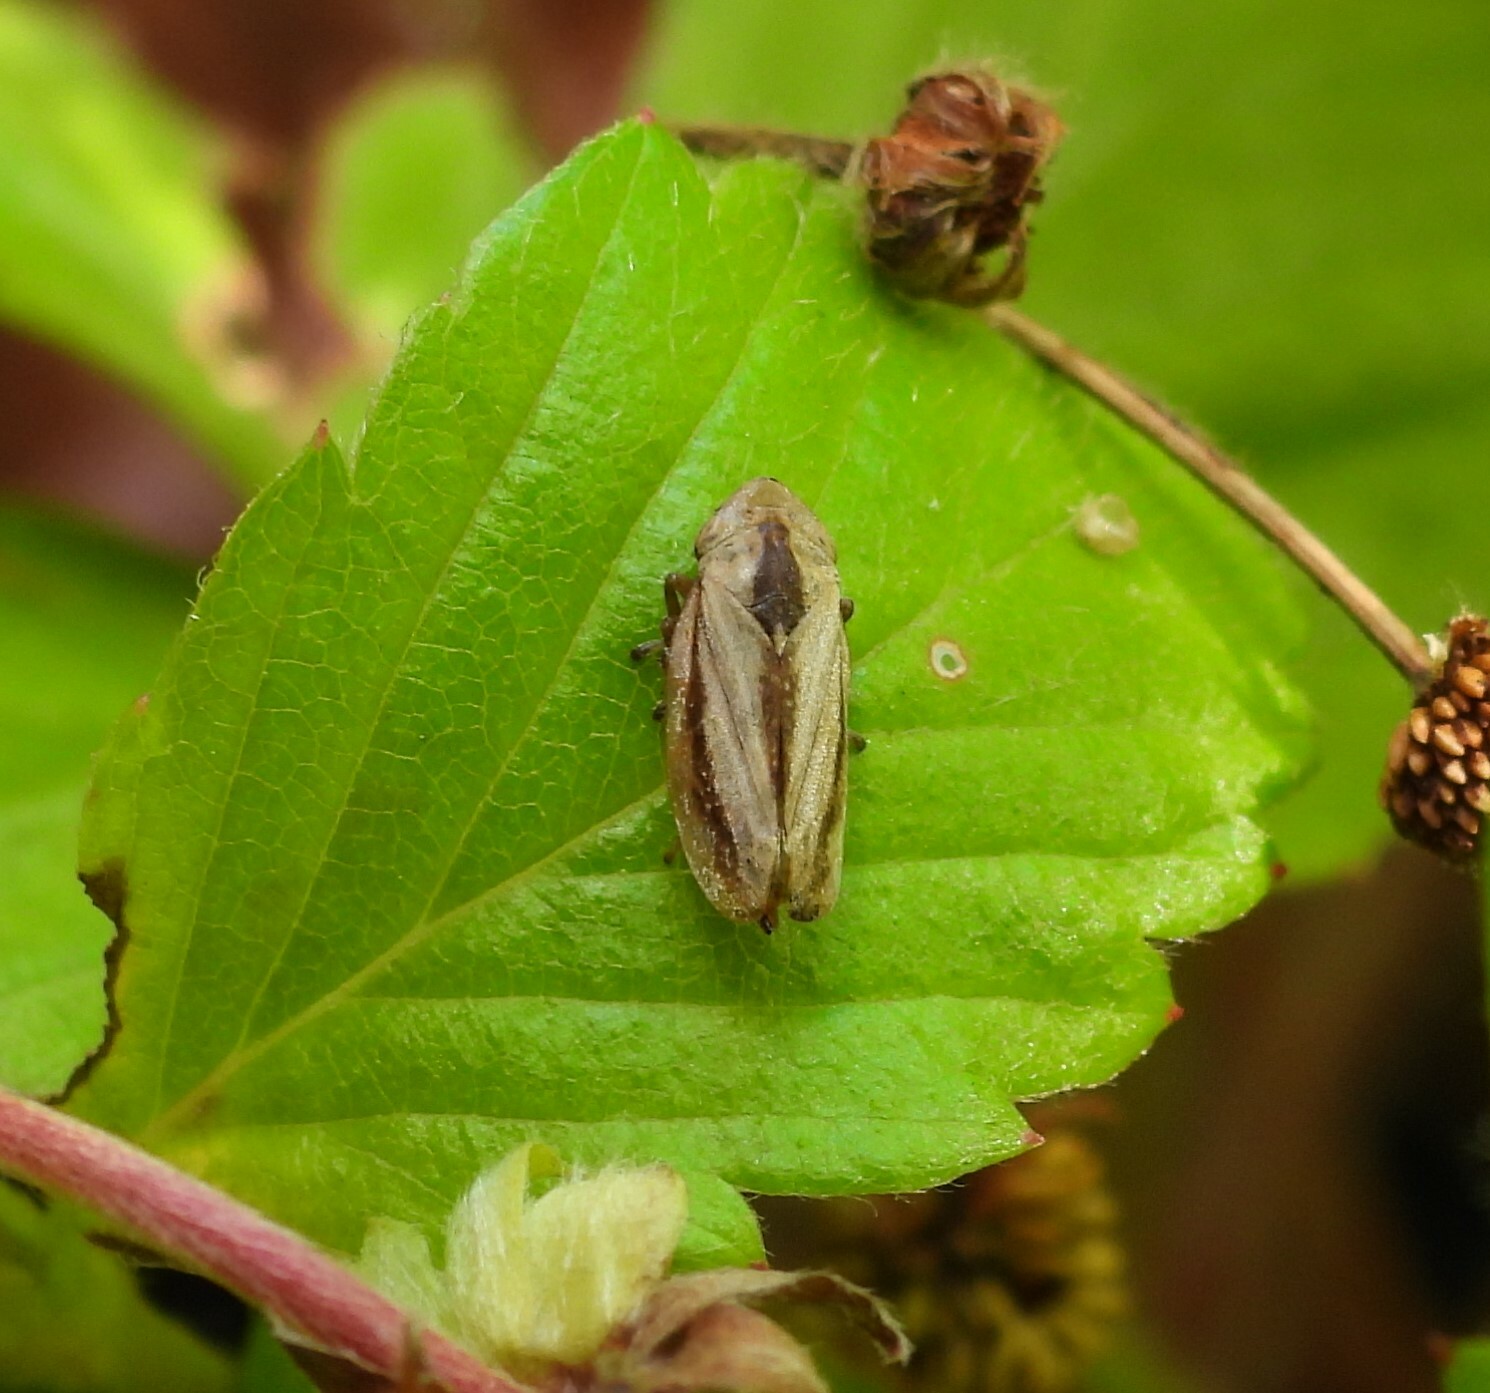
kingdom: Animalia
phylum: Arthropoda
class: Insecta
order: Hemiptera
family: Aphrophoridae
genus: Philaenus
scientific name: Philaenus spumarius
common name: Meadow spittlebug
